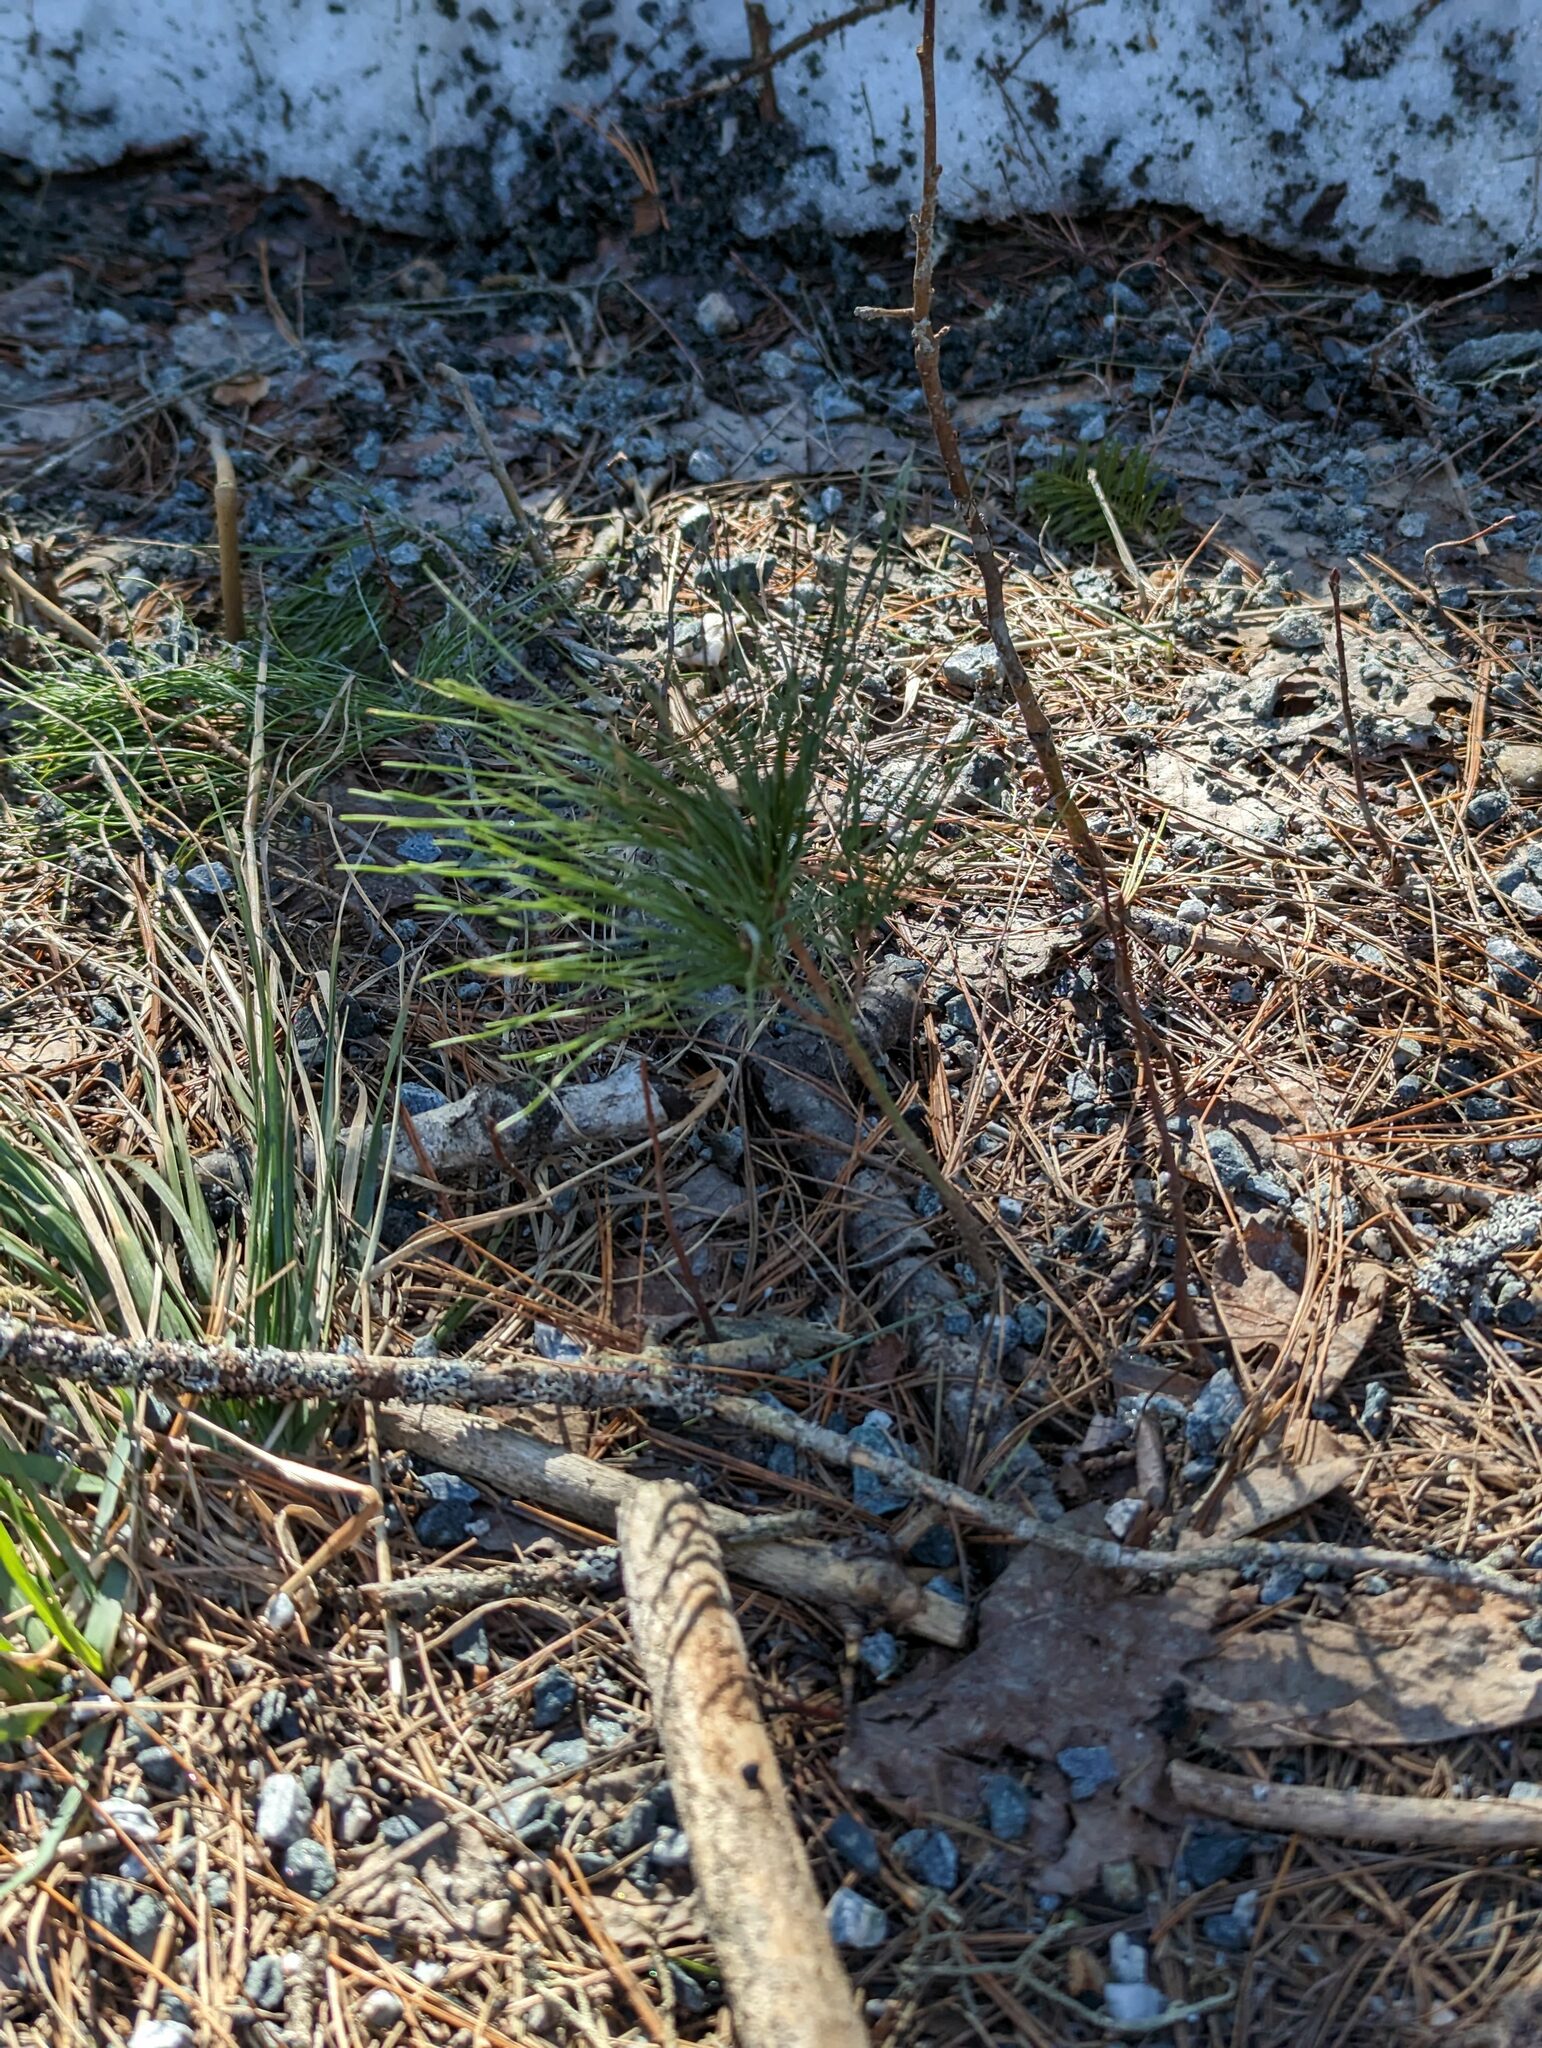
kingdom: Plantae
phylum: Tracheophyta
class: Pinopsida
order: Pinales
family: Pinaceae
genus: Pinus
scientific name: Pinus strobus
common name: Weymouth pine
